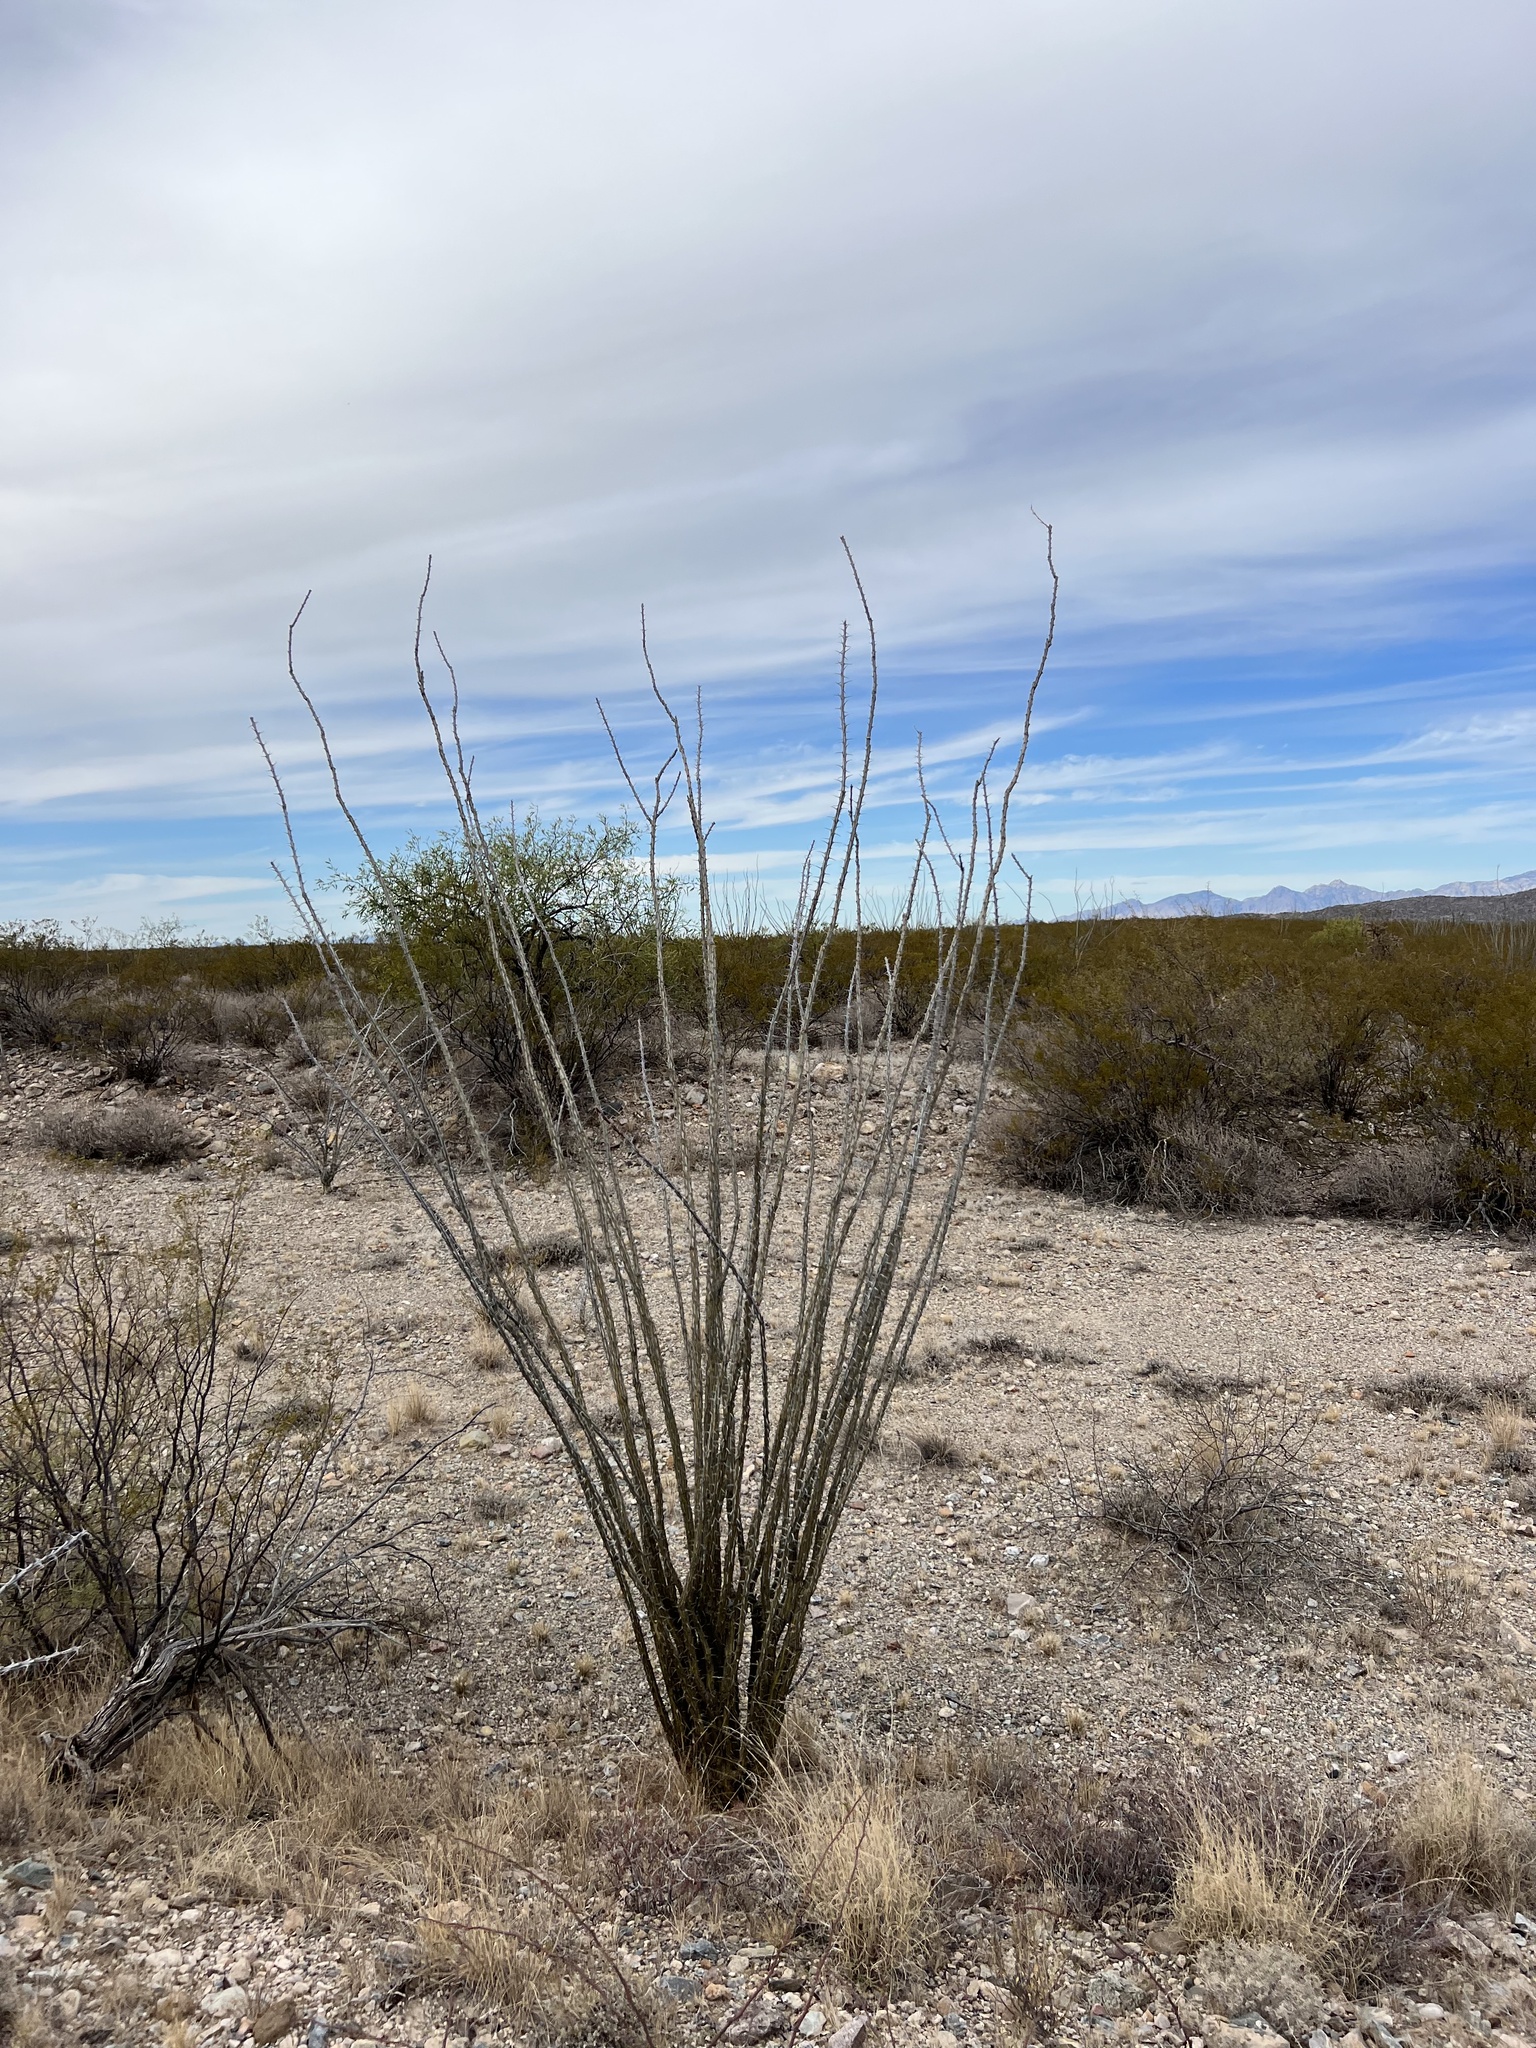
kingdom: Plantae
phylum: Tracheophyta
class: Magnoliopsida
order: Ericales
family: Fouquieriaceae
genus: Fouquieria
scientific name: Fouquieria splendens
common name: Vine-cactus
